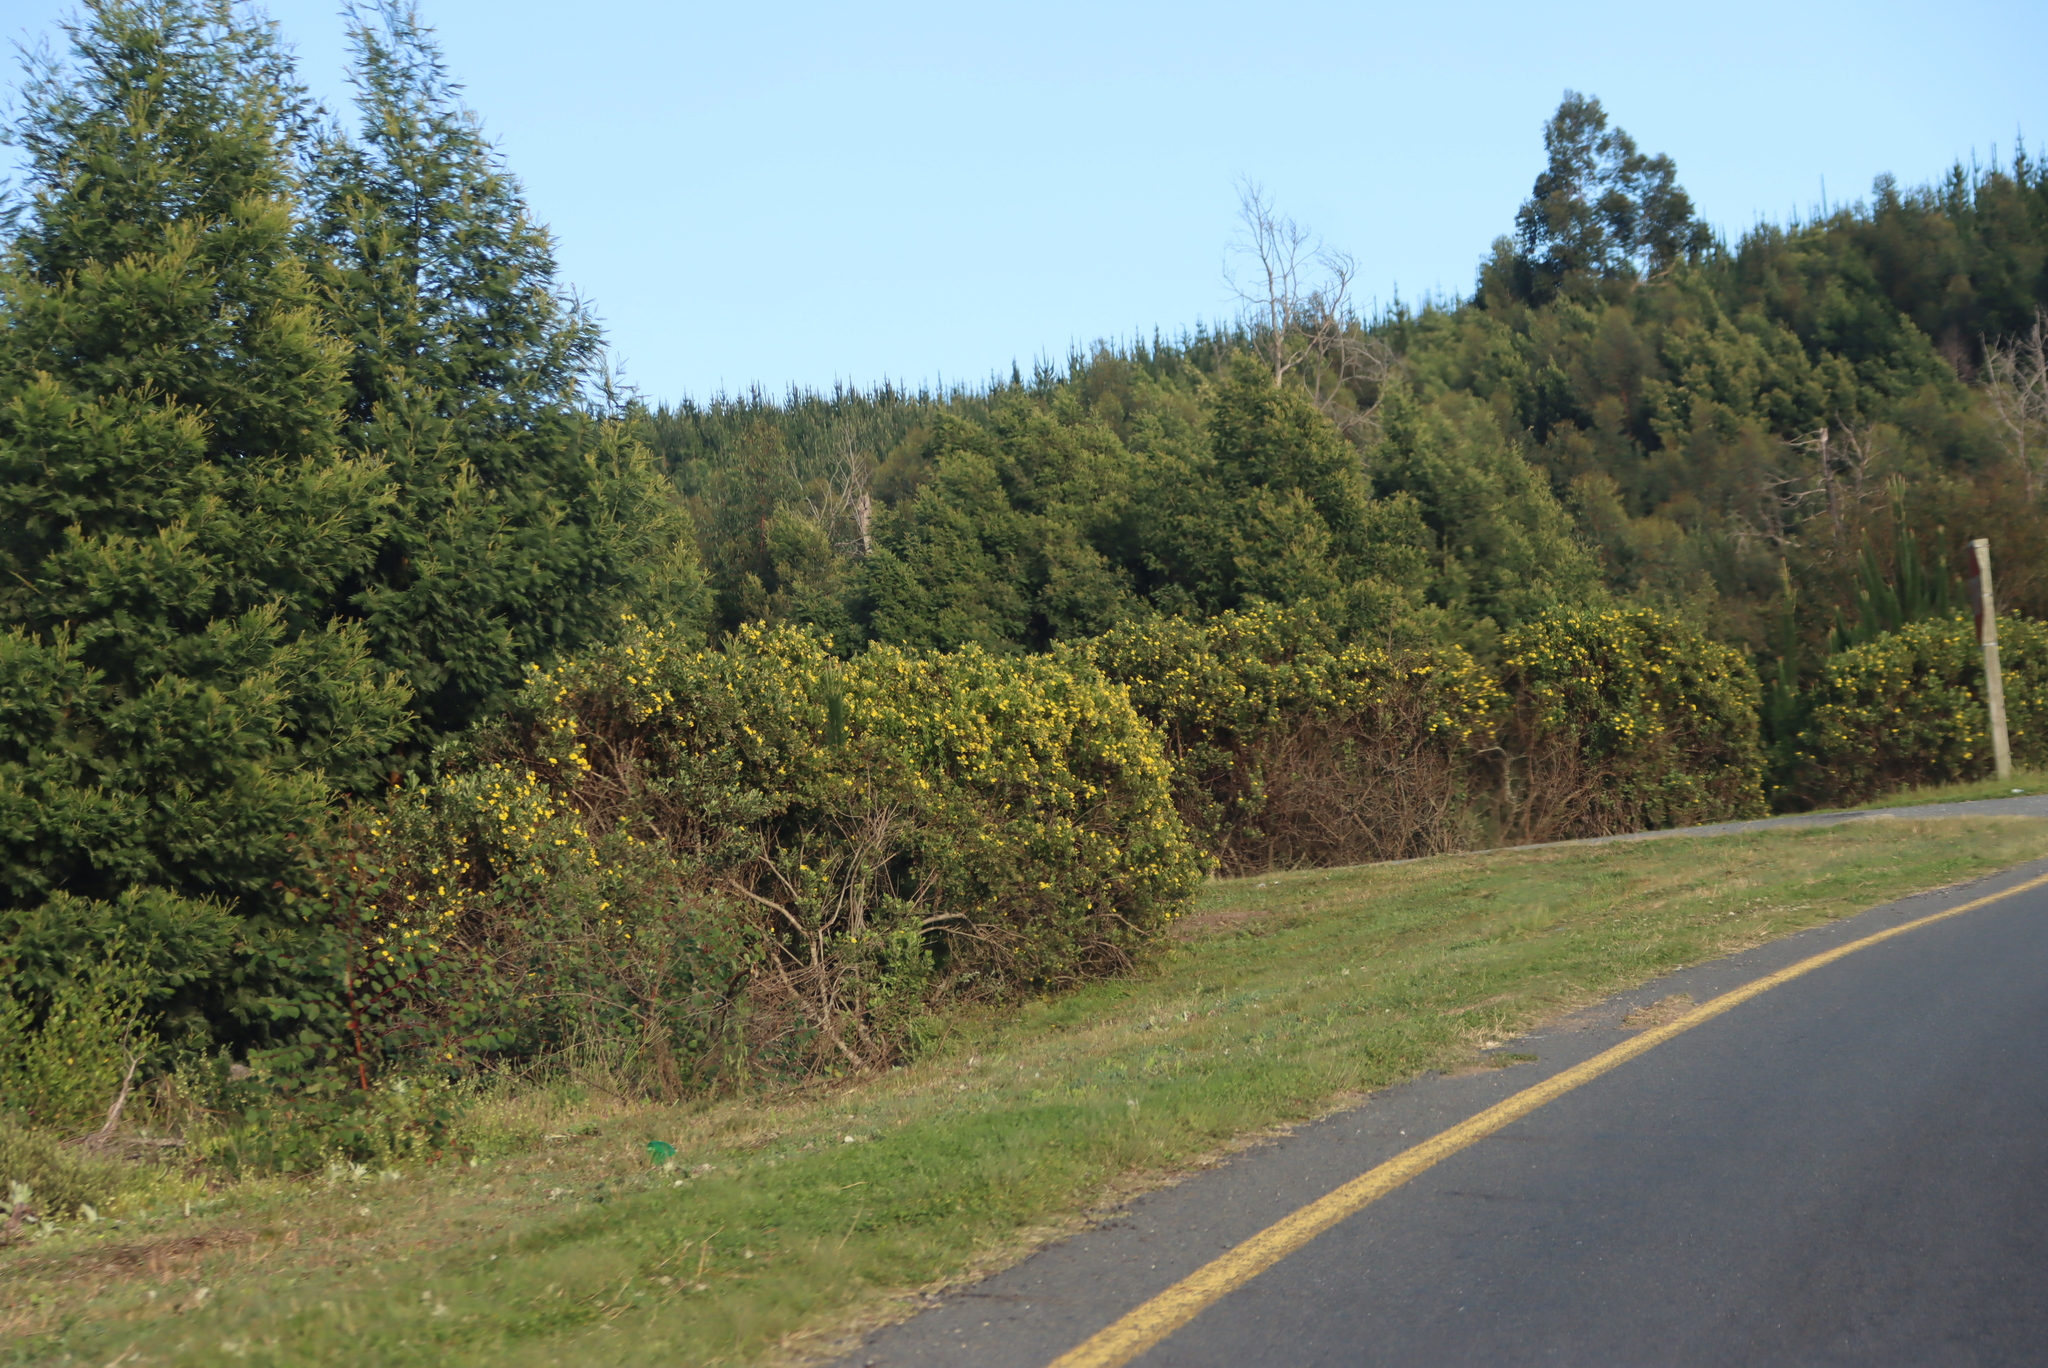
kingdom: Plantae
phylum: Tracheophyta
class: Magnoliopsida
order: Fabales
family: Fabaceae
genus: Acacia
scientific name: Acacia mearnsii
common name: Black wattle
